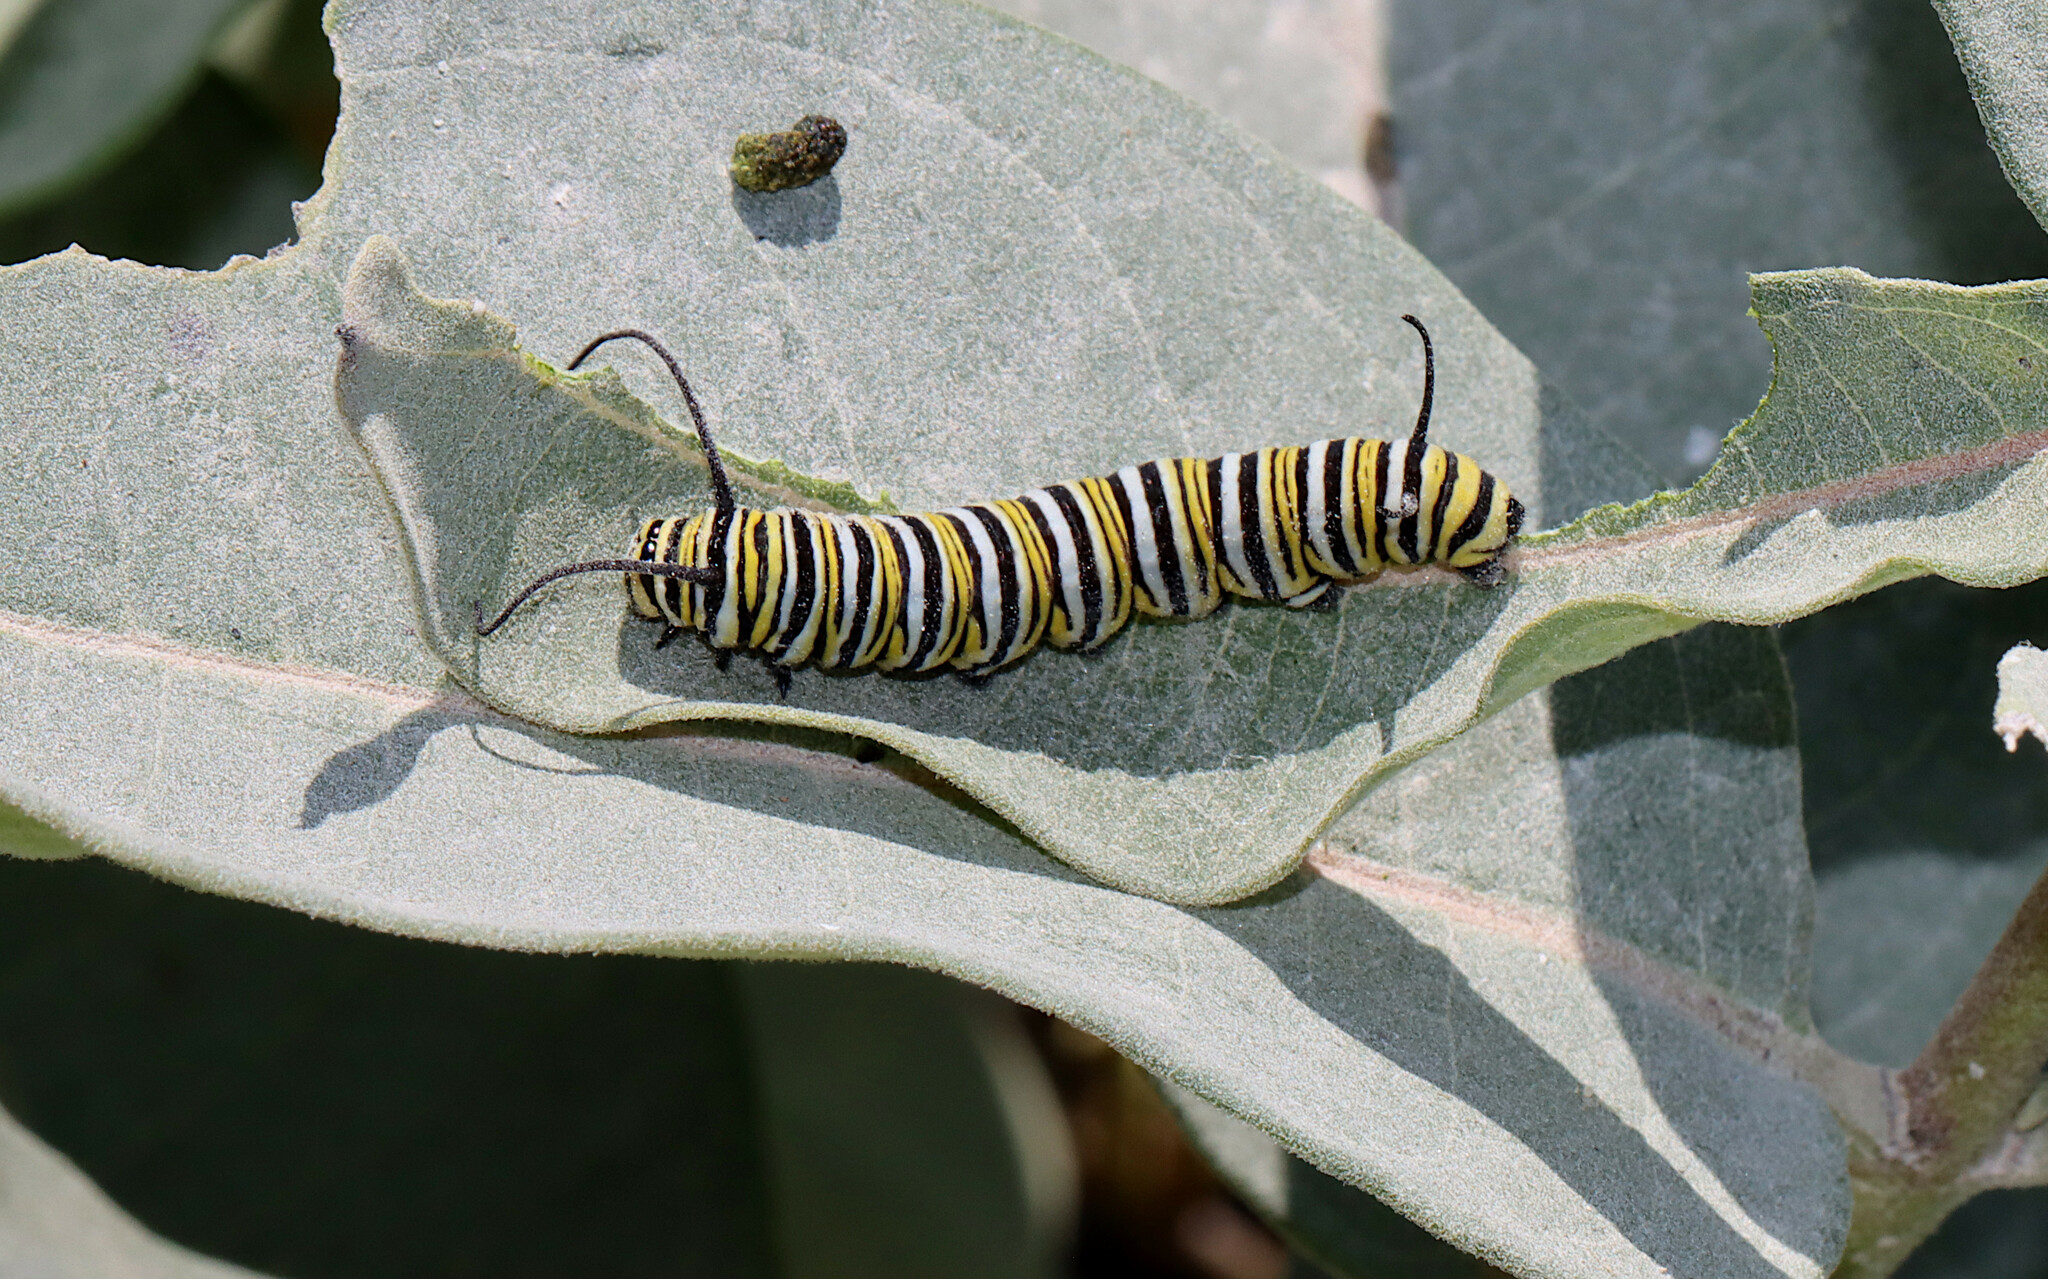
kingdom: Animalia
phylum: Arthropoda
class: Insecta
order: Lepidoptera
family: Nymphalidae
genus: Danaus
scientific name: Danaus plexippus
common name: Monarch
